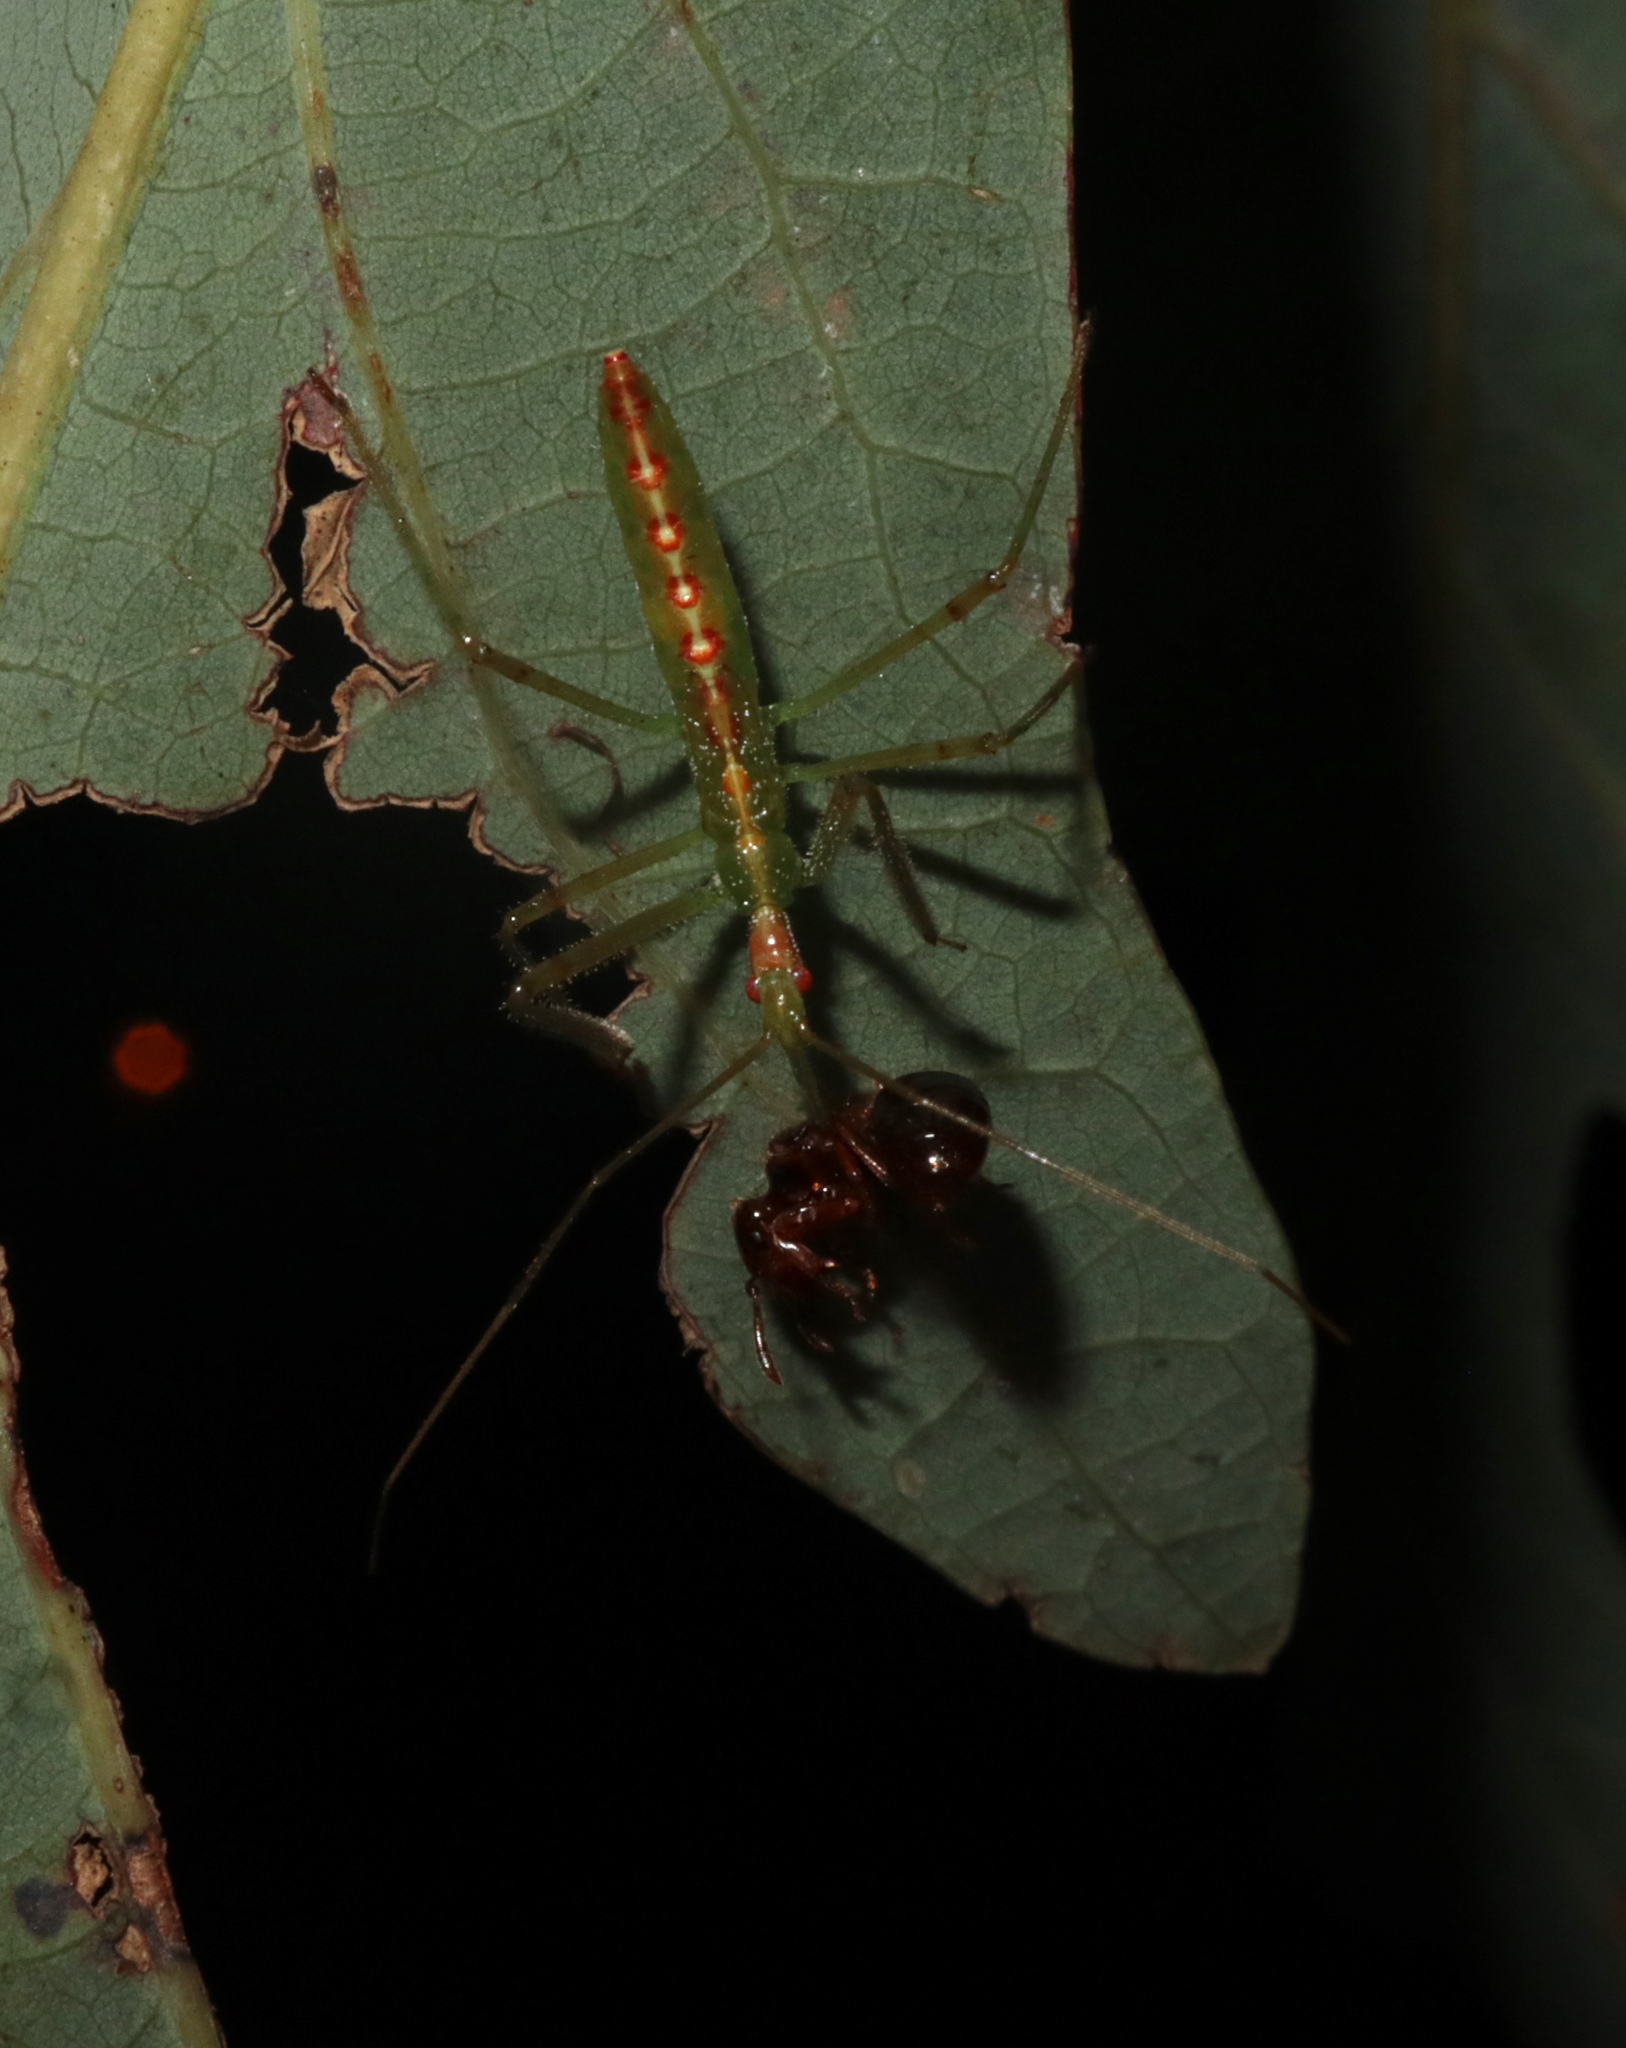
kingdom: Animalia
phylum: Arthropoda
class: Insecta
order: Hemiptera
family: Reduviidae
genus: Zelus
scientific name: Zelus luridus
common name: Pale green assassin bug
